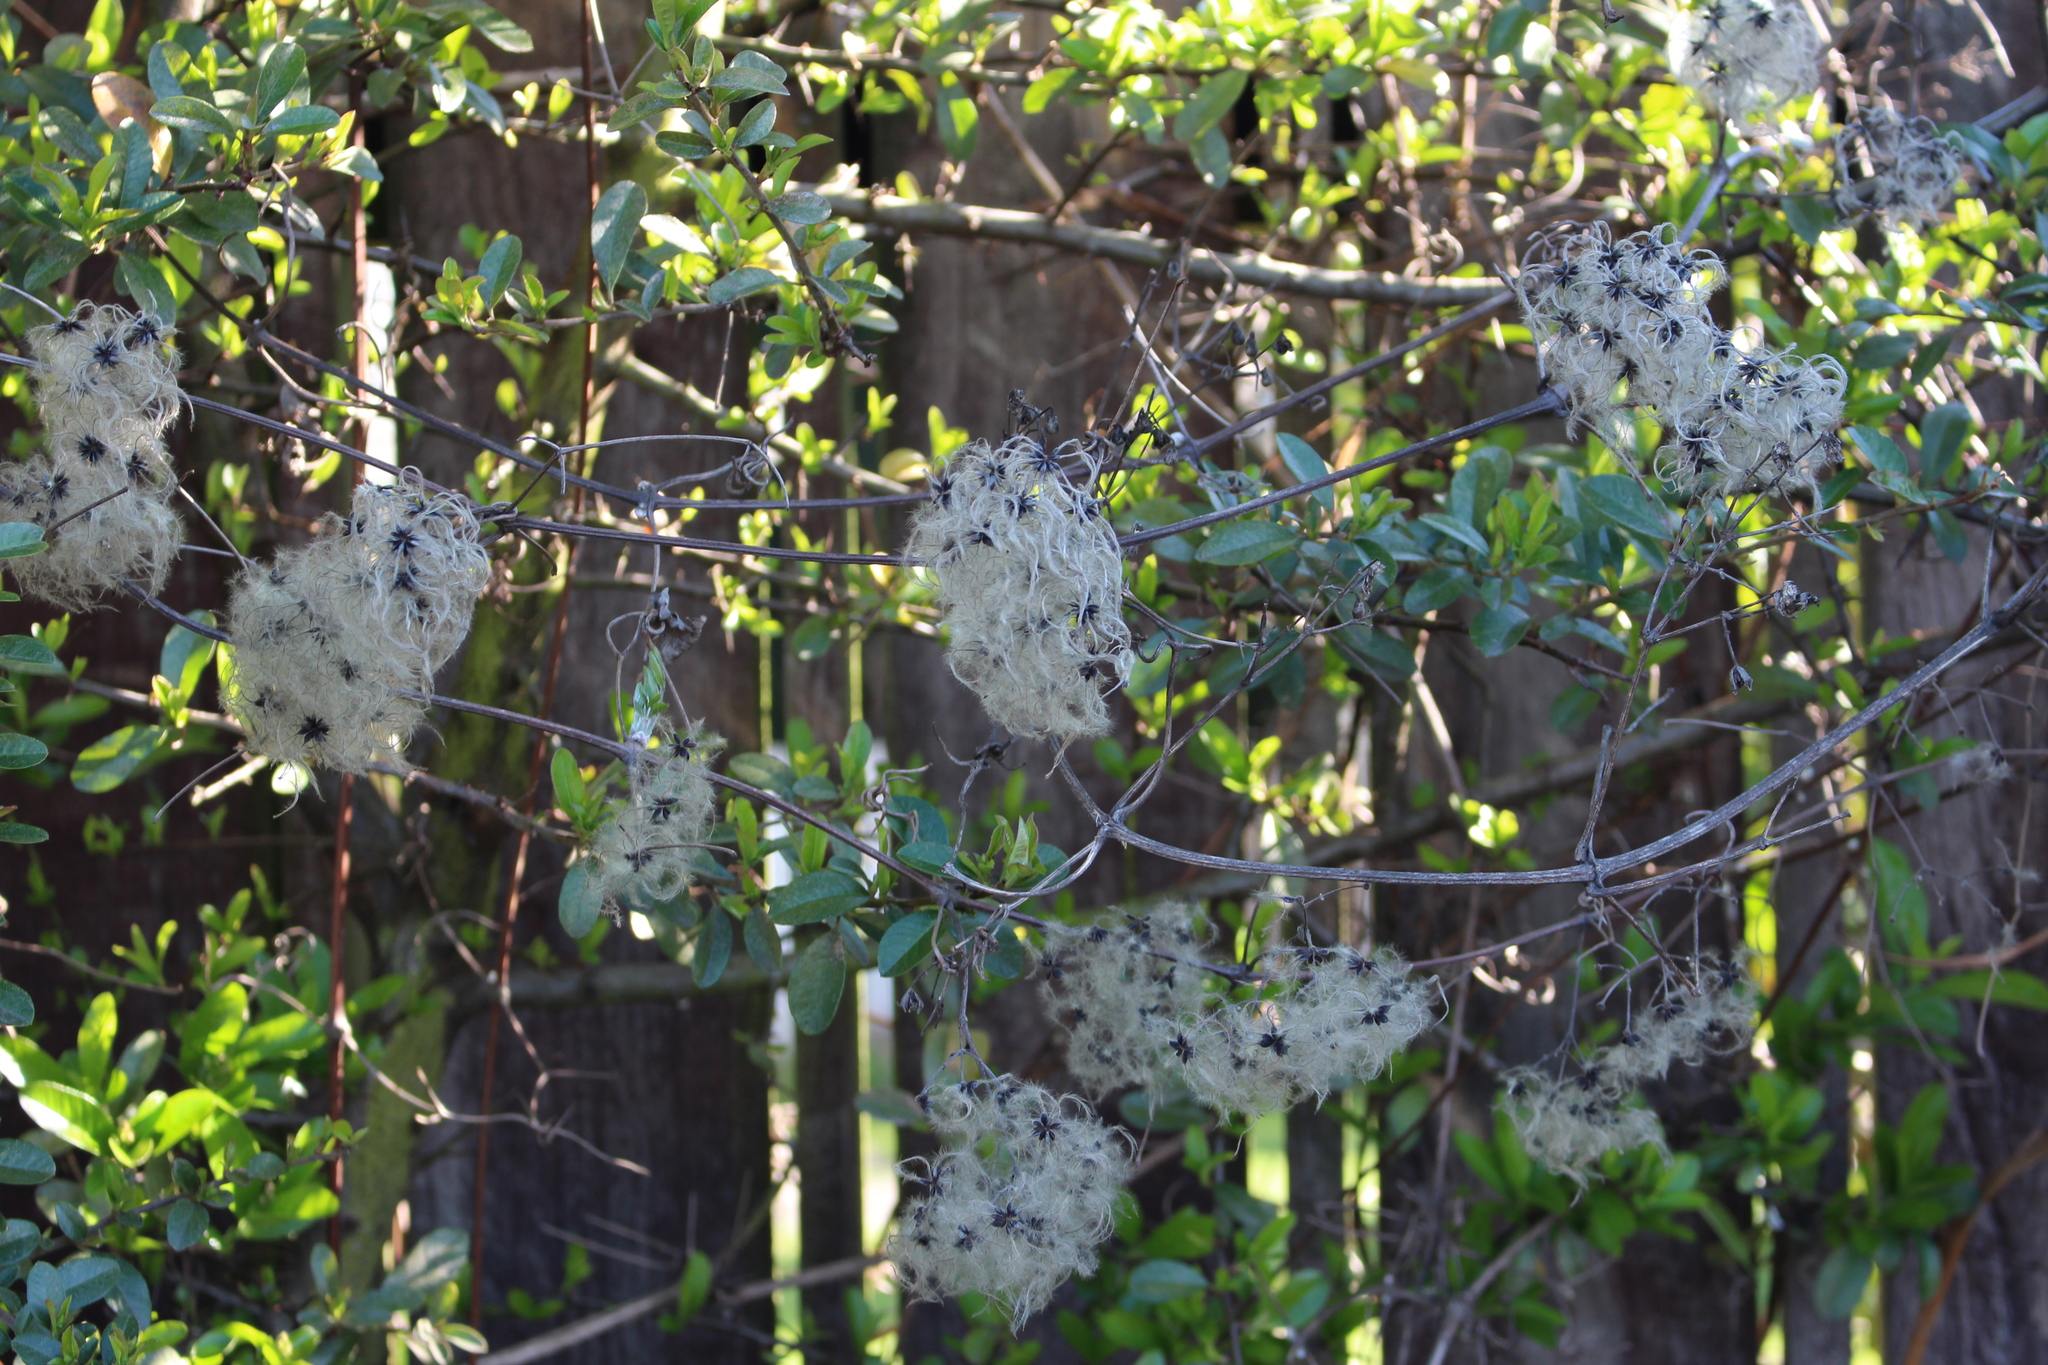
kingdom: Plantae
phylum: Tracheophyta
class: Magnoliopsida
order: Ranunculales
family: Ranunculaceae
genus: Clematis
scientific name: Clematis vitalba
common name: Evergreen clematis
